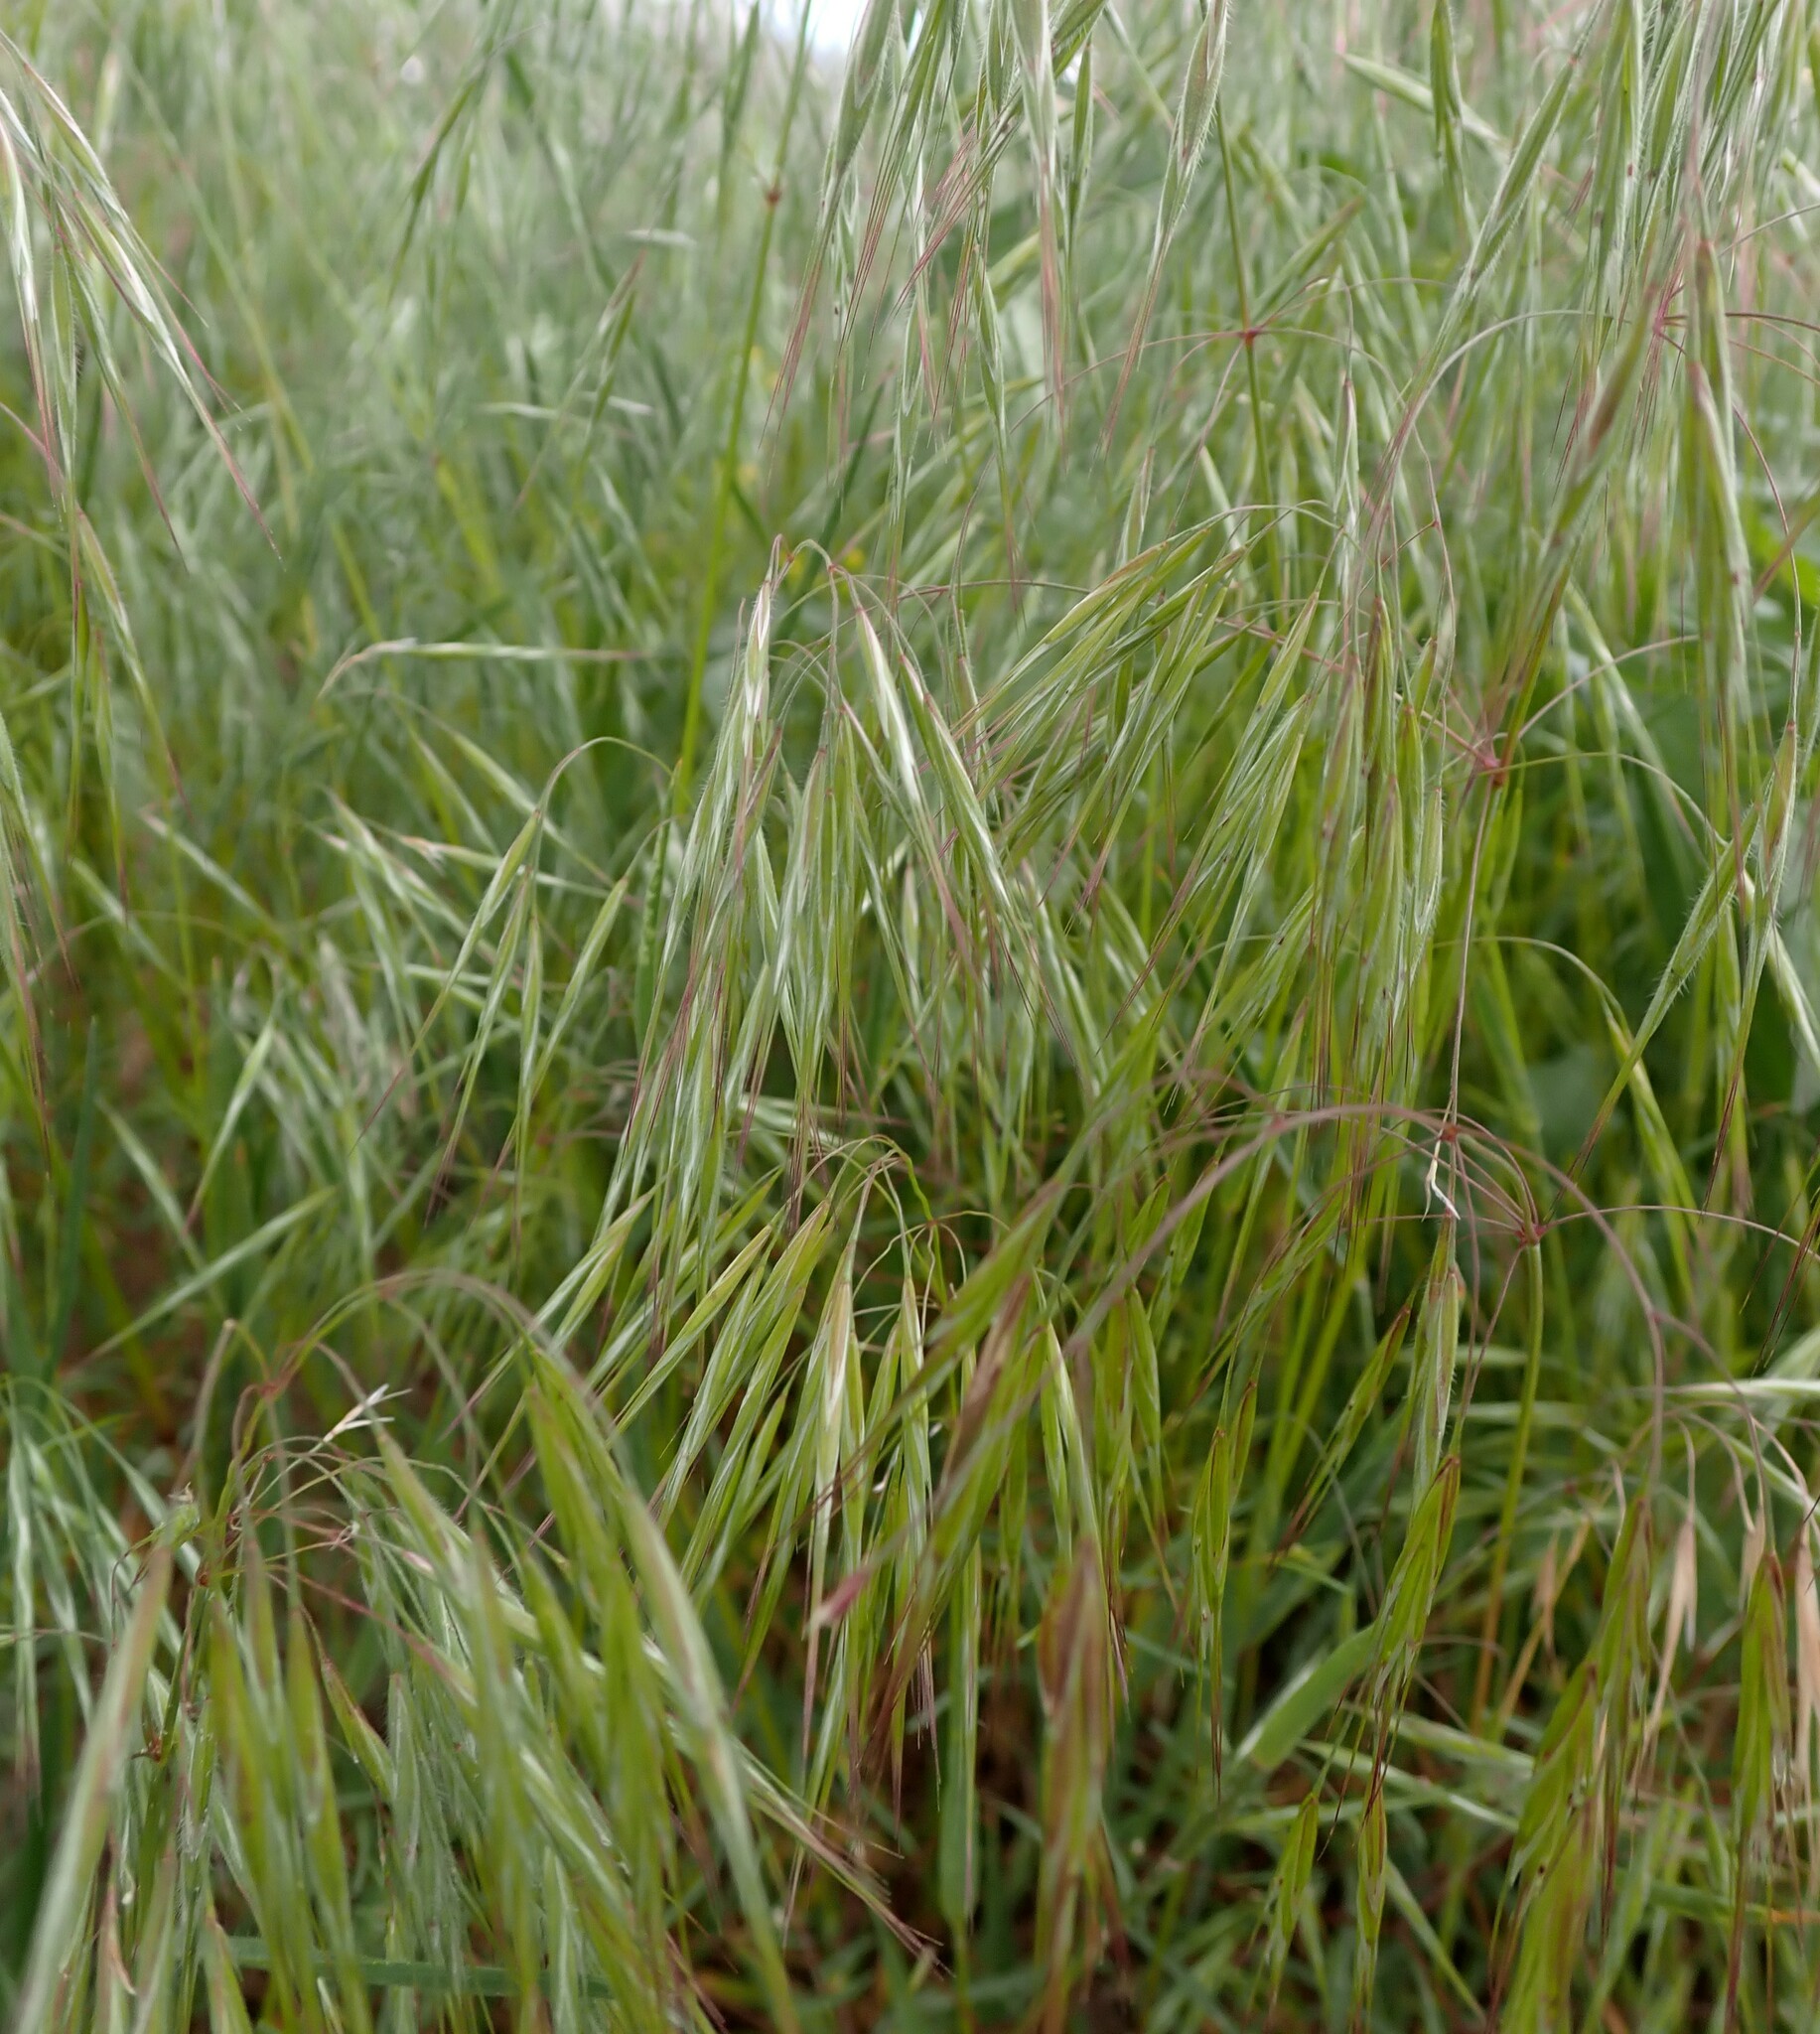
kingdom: Plantae
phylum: Tracheophyta
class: Liliopsida
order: Poales
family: Poaceae
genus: Bromus
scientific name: Bromus tectorum
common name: Cheatgrass
